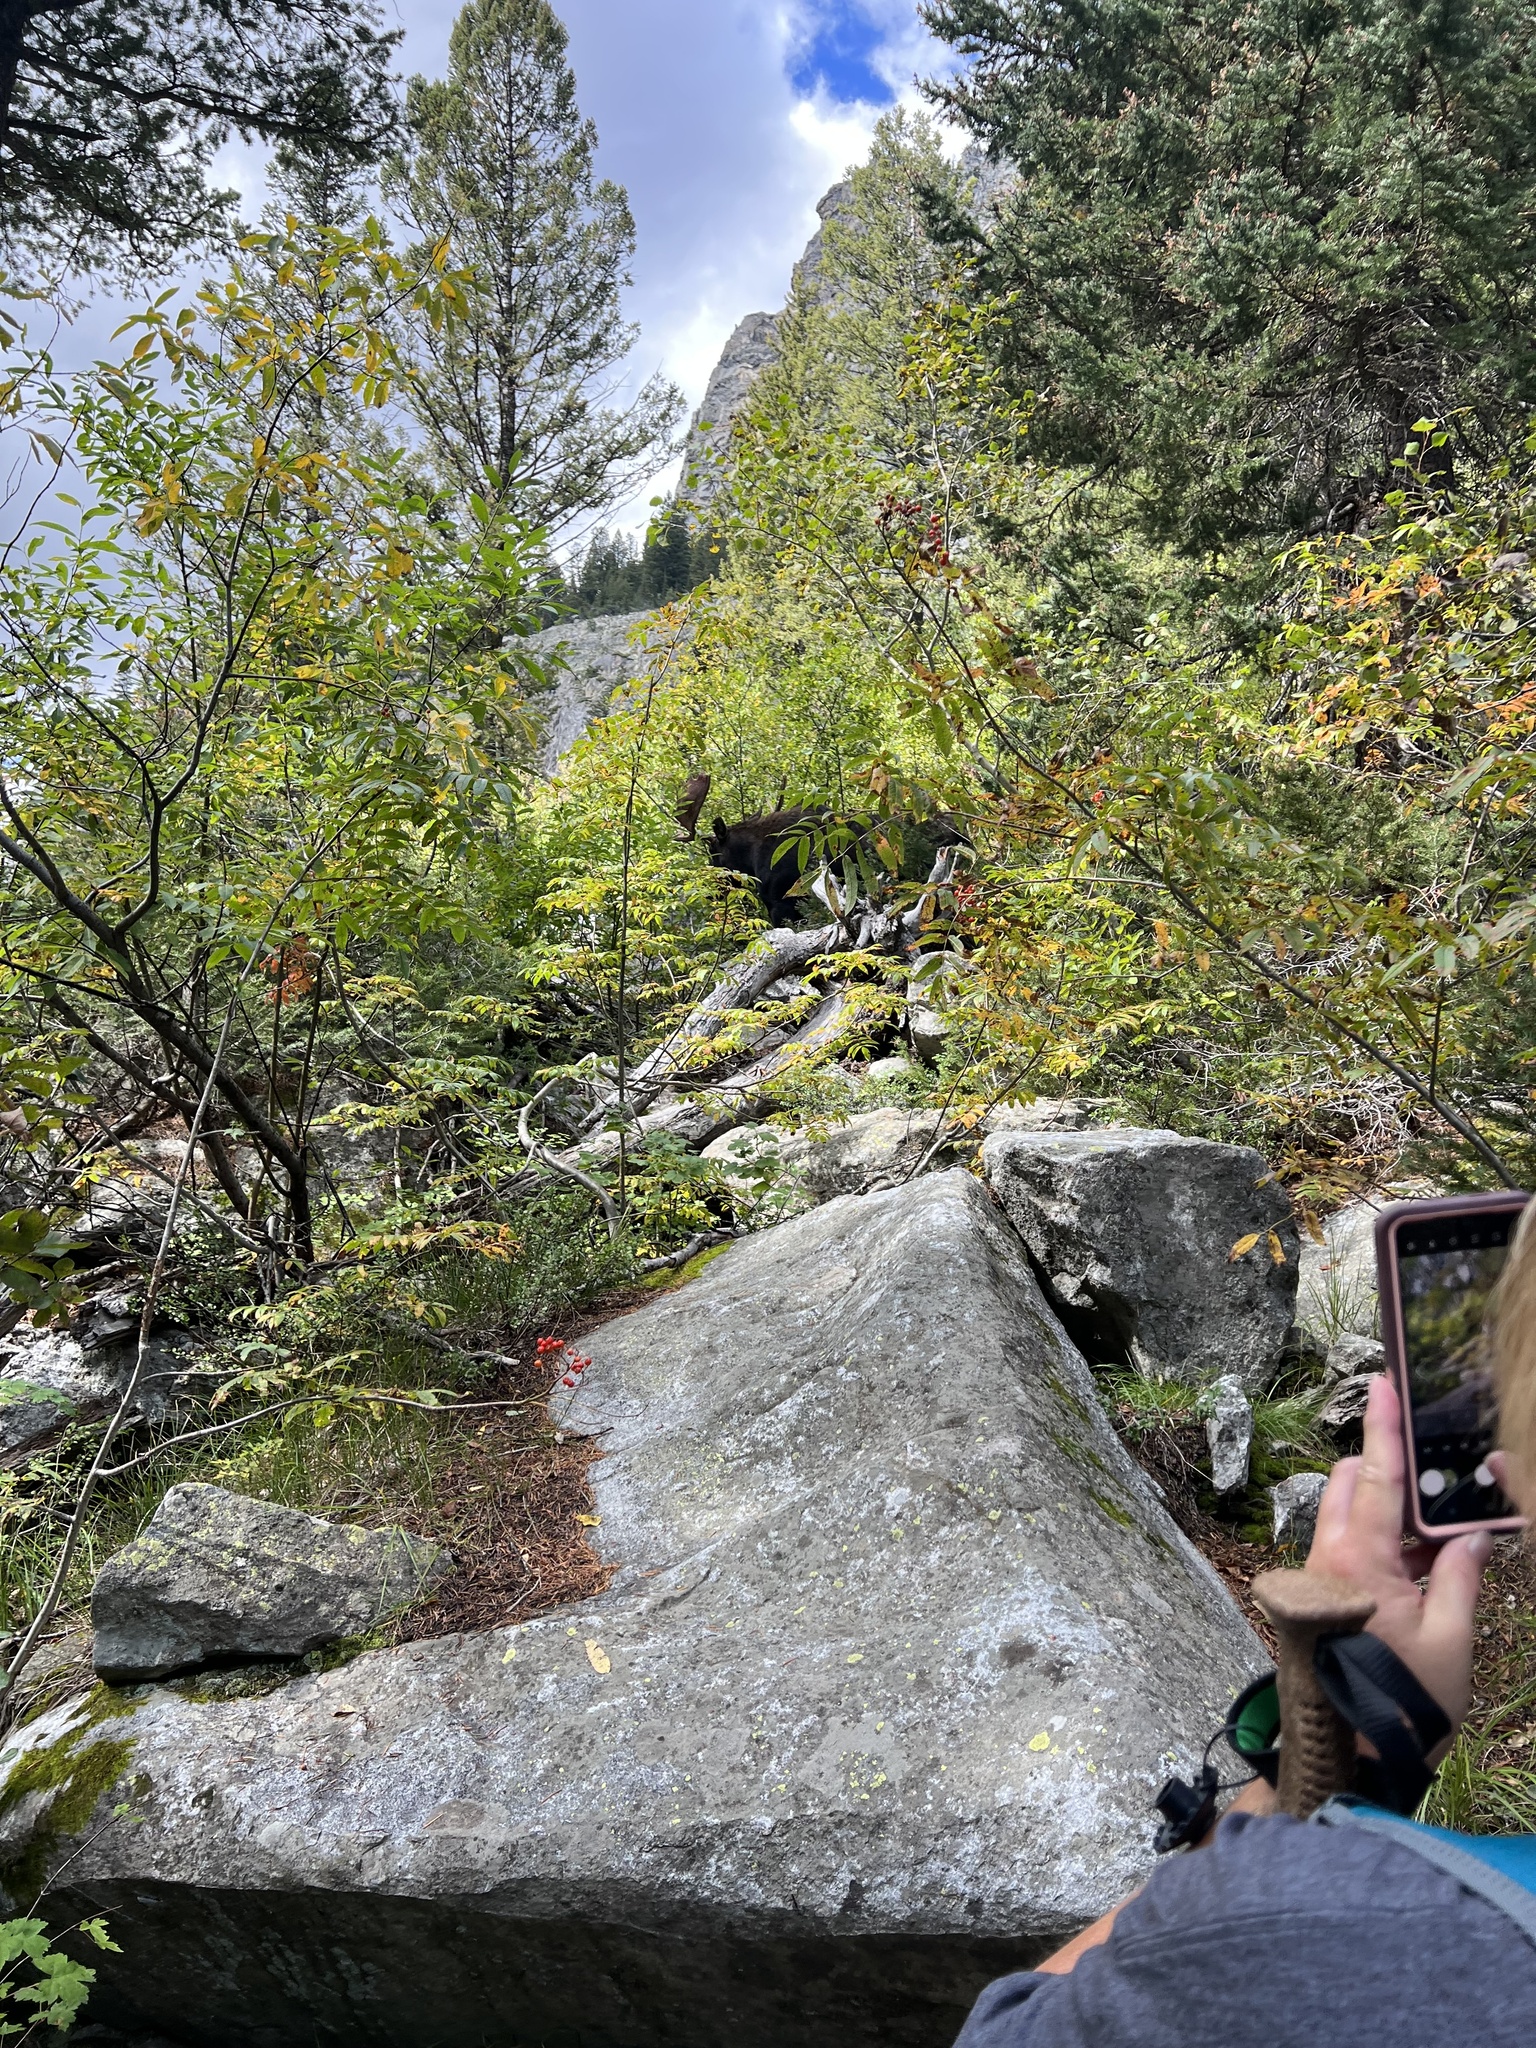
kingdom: Animalia
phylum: Chordata
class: Mammalia
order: Artiodactyla
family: Cervidae
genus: Alces
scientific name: Alces alces
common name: Moose
